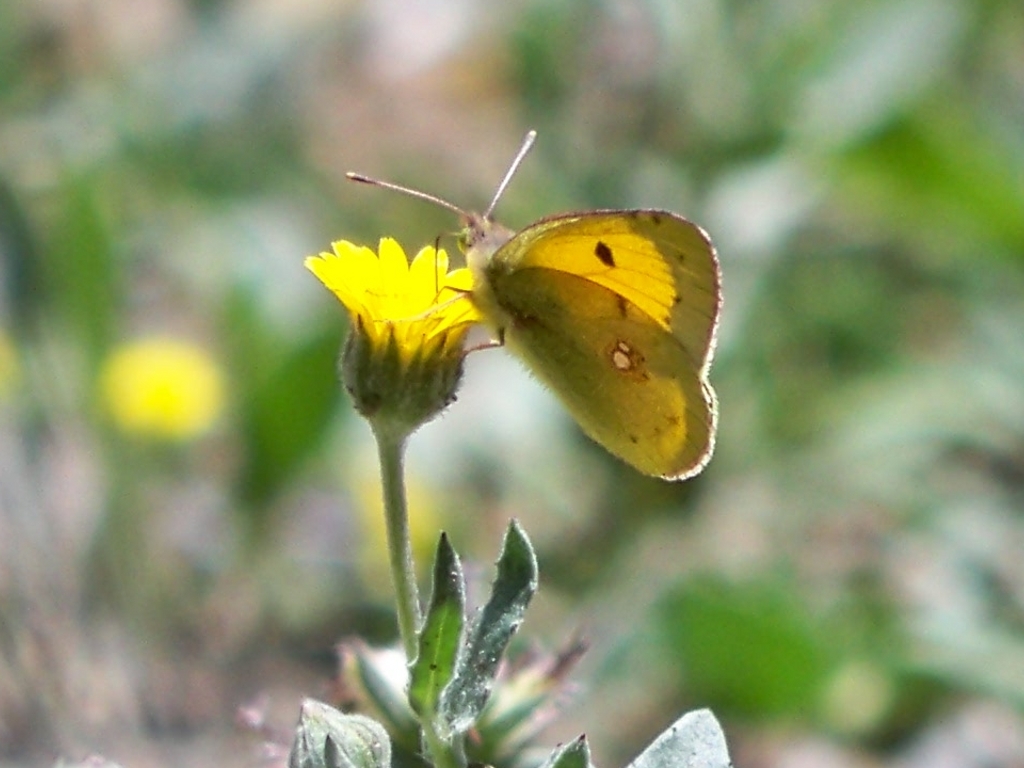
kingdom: Animalia
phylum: Arthropoda
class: Insecta
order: Lepidoptera
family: Pieridae
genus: Colias
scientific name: Colias croceus
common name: Clouded yellow
